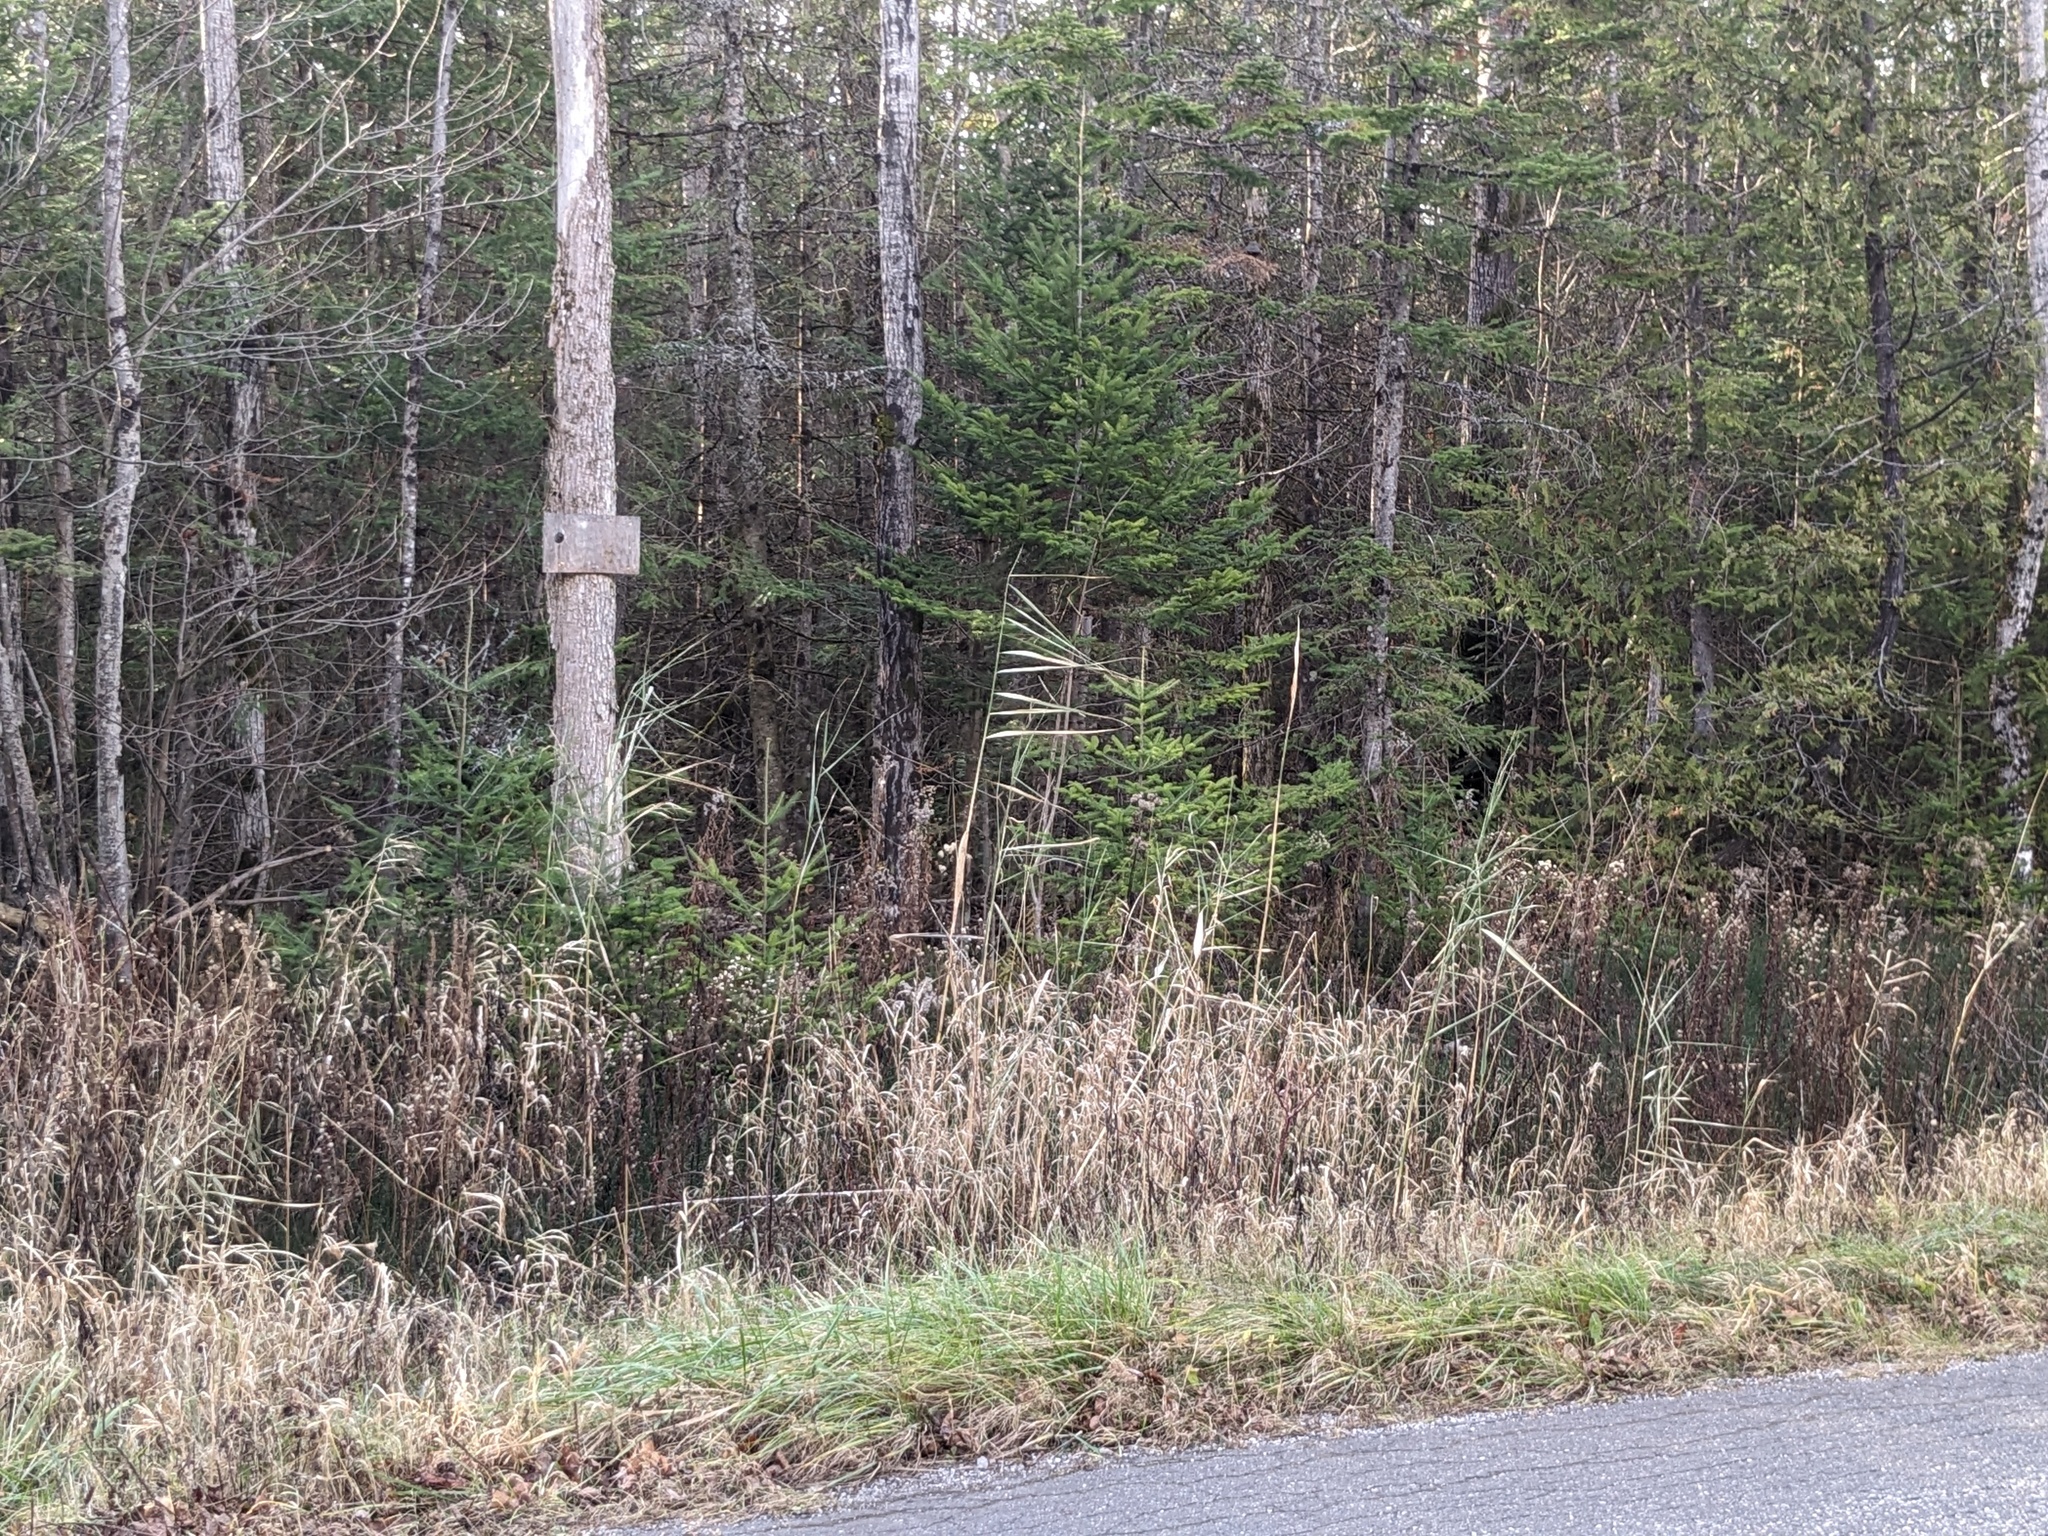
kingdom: Plantae
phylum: Tracheophyta
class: Liliopsida
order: Poales
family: Poaceae
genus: Phragmites
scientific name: Phragmites australis
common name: Common reed
